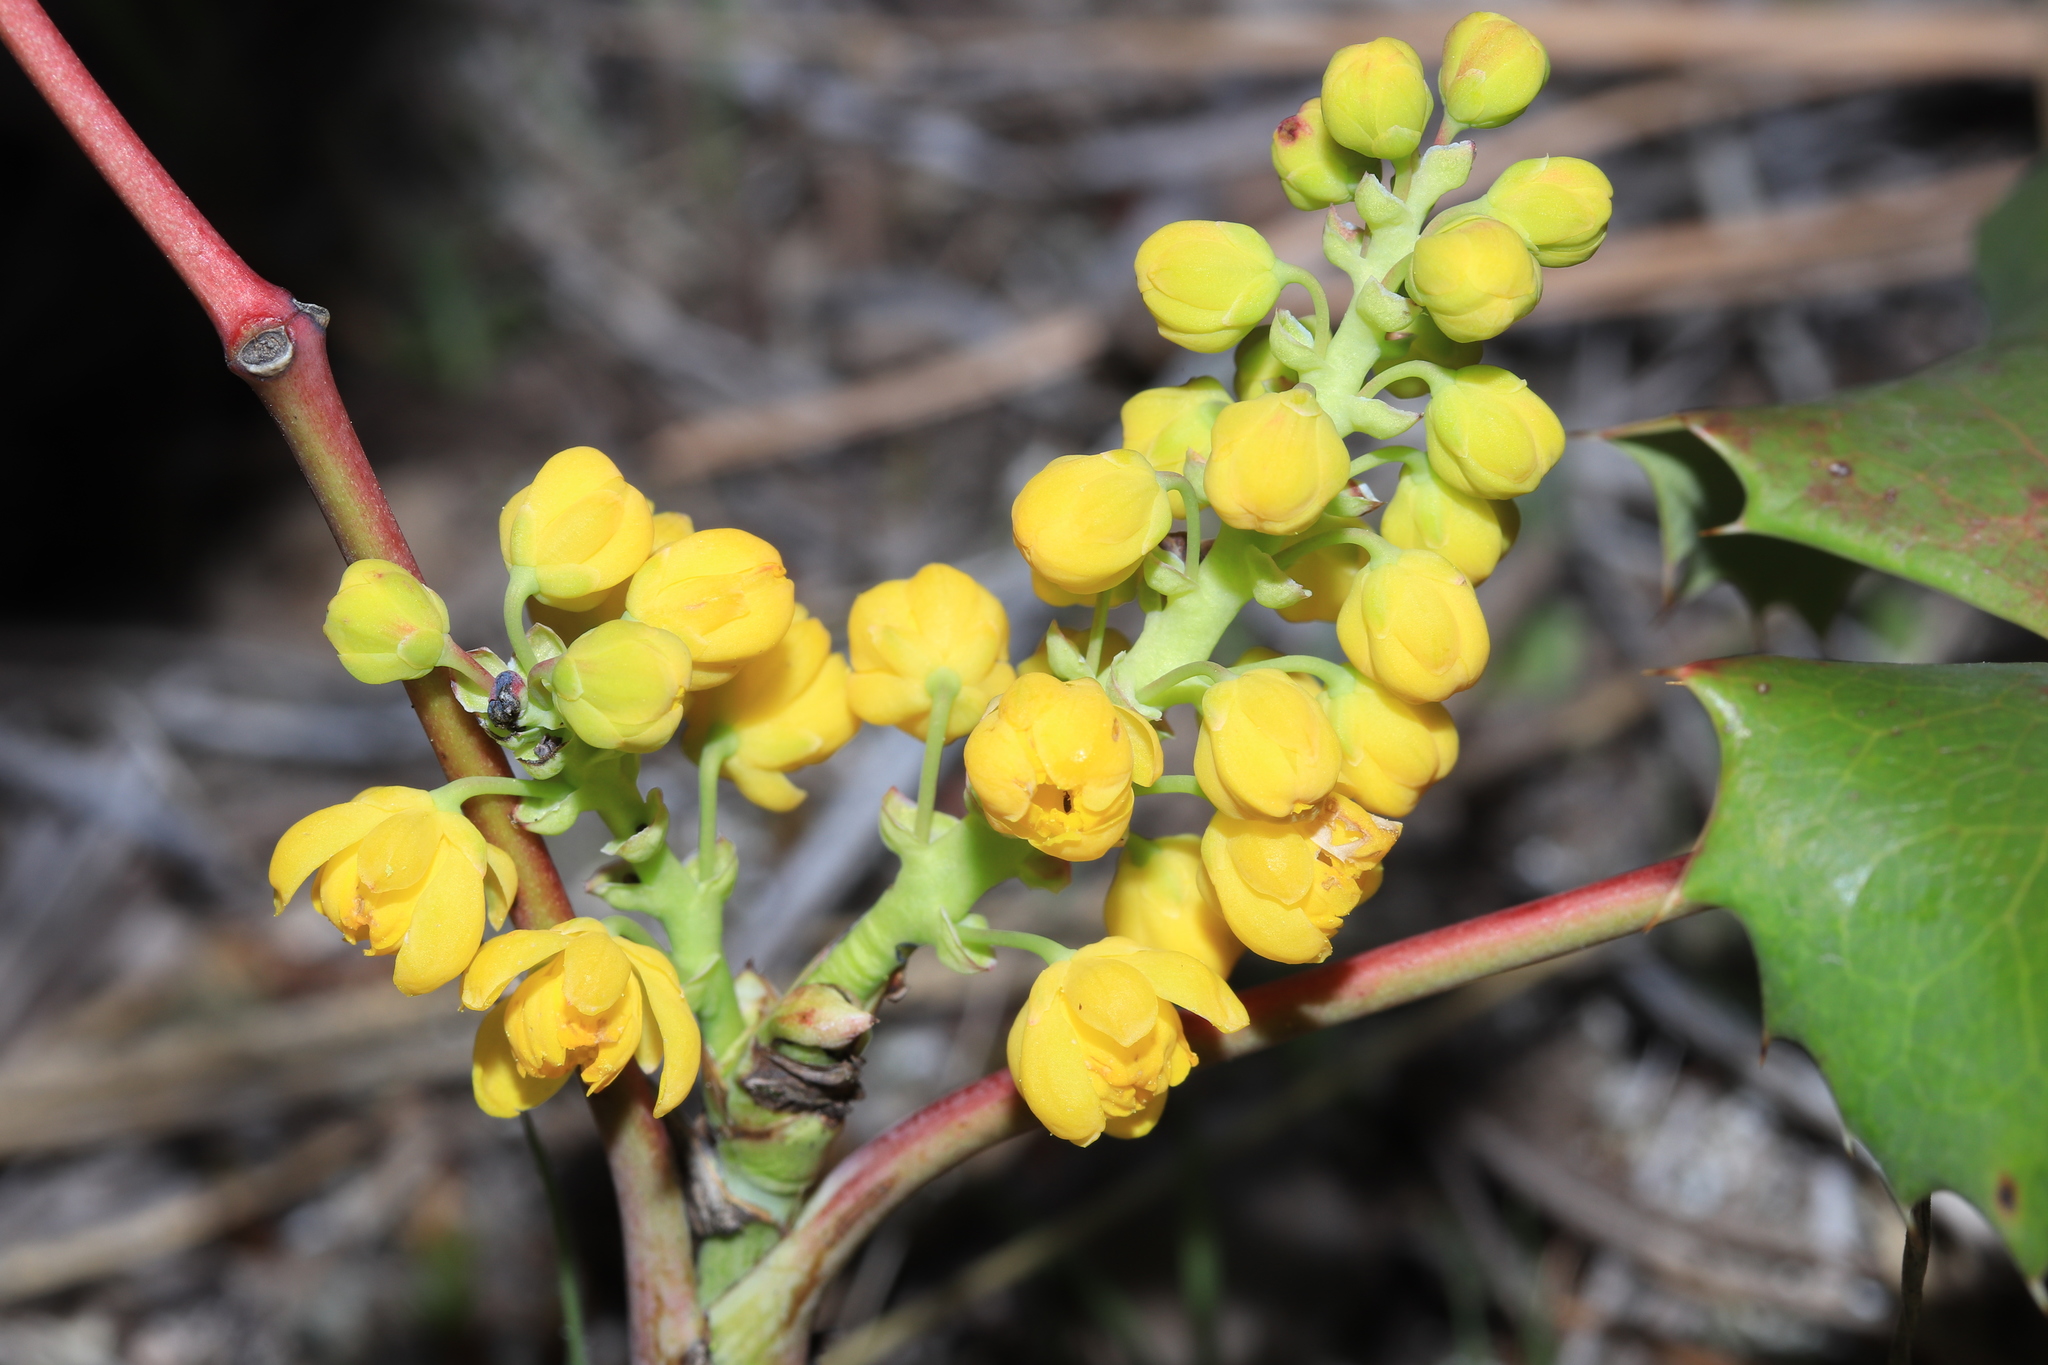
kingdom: Plantae
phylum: Tracheophyta
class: Magnoliopsida
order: Ranunculales
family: Berberidaceae
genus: Mahonia
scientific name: Mahonia repens
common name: Creeping oregon-grape
